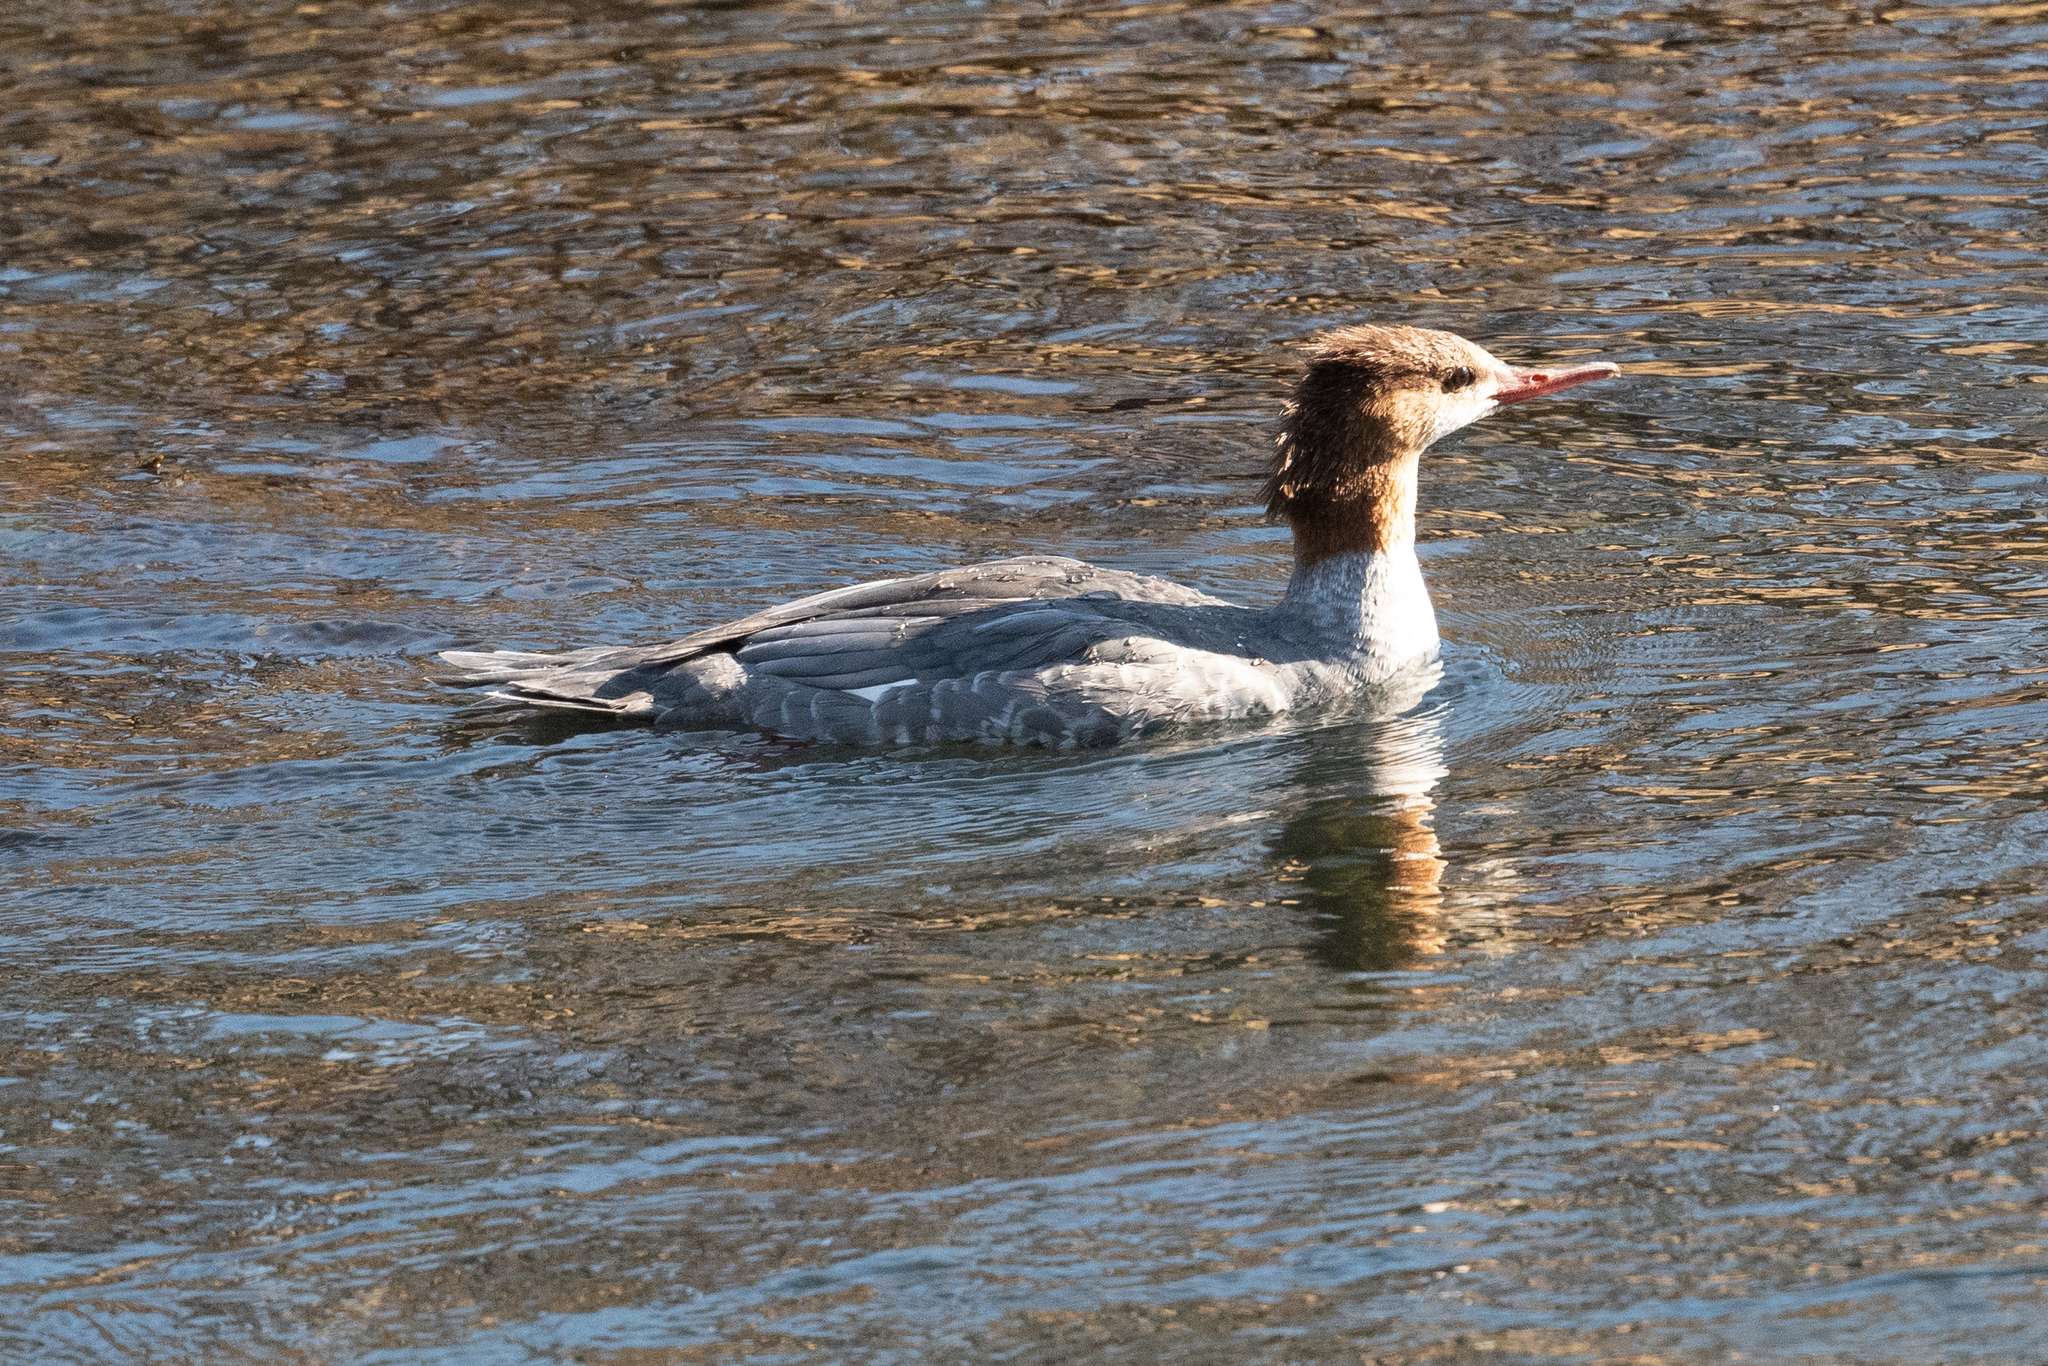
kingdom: Animalia
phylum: Chordata
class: Aves
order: Anseriformes
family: Anatidae
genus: Mergus
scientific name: Mergus merganser
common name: Common merganser
